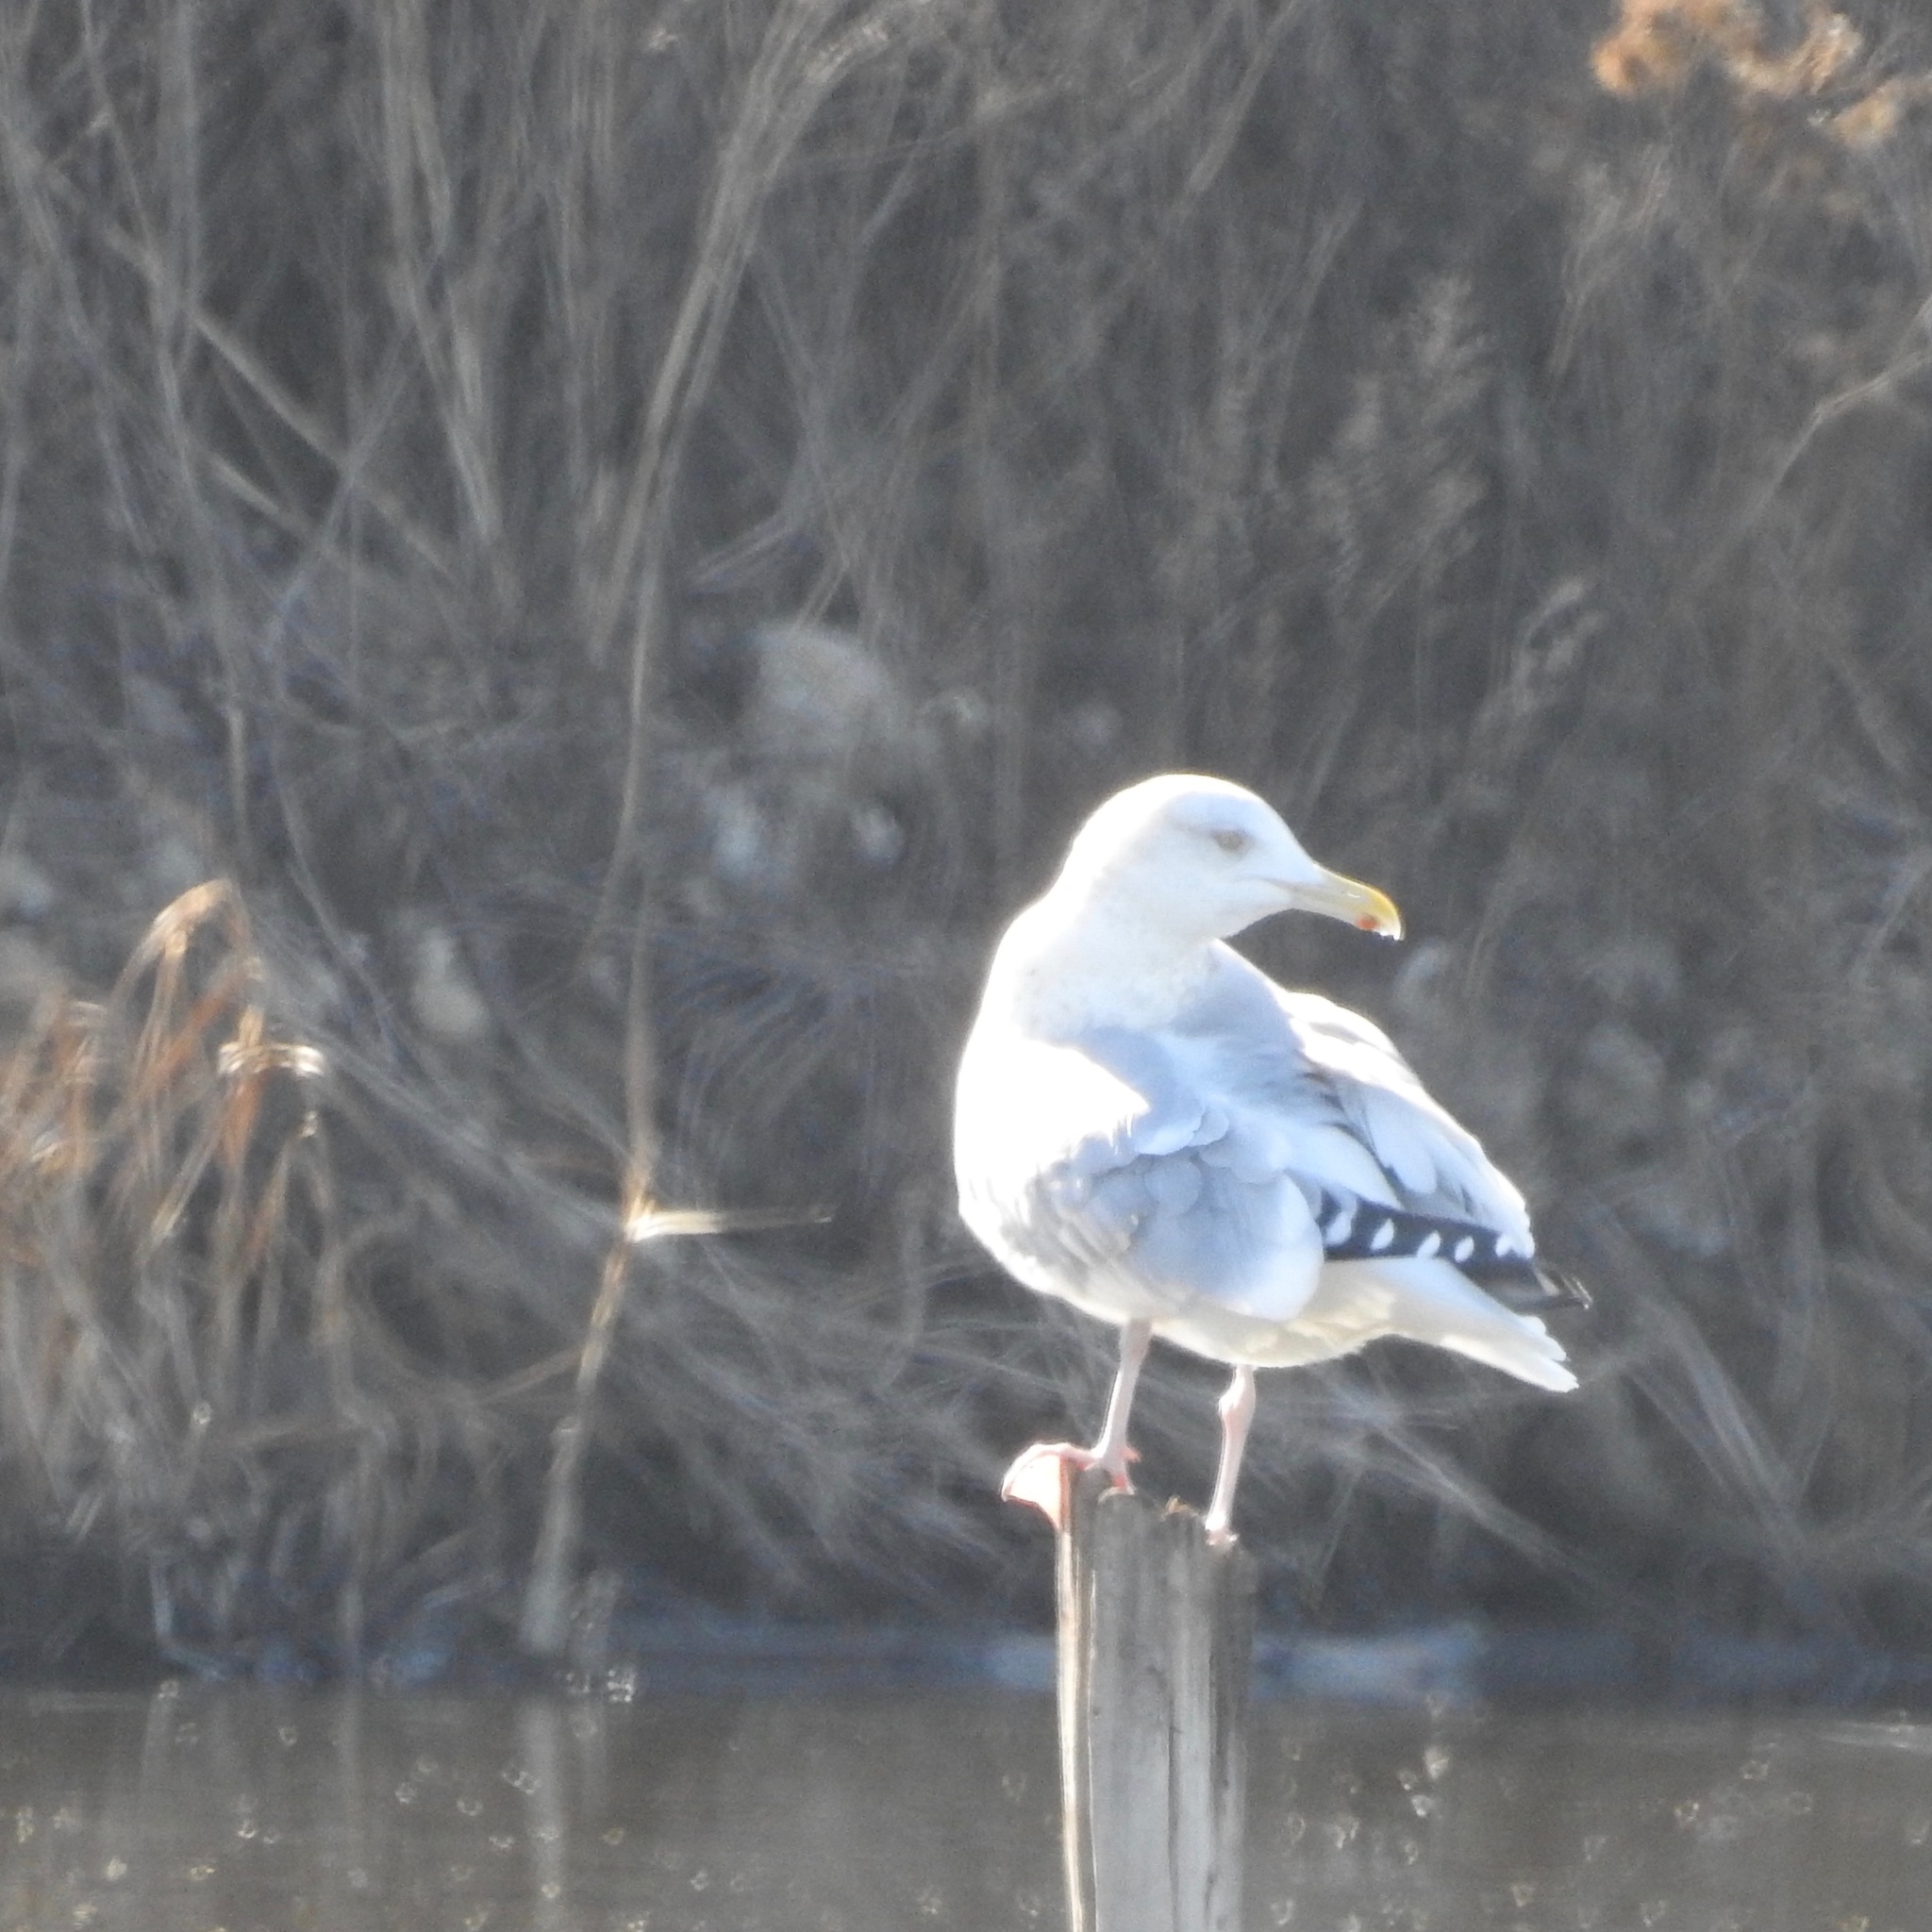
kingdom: Animalia
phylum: Chordata
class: Aves
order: Charadriiformes
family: Laridae
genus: Larus
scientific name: Larus argentatus
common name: Herring gull
